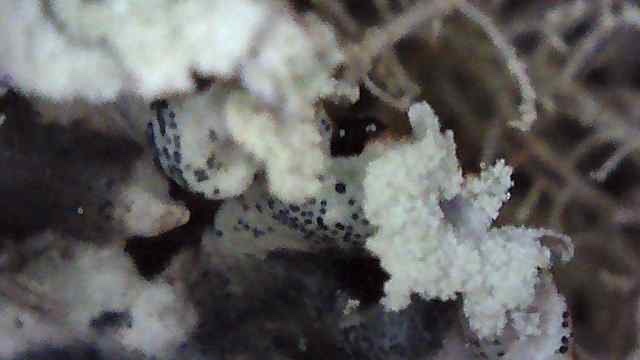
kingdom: Fungi
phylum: Ascomycota
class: Lecanoromycetes
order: Lecanorales
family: Parmeliaceae
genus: Hypogymnia
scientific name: Hypogymnia physodes
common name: Dark crottle
